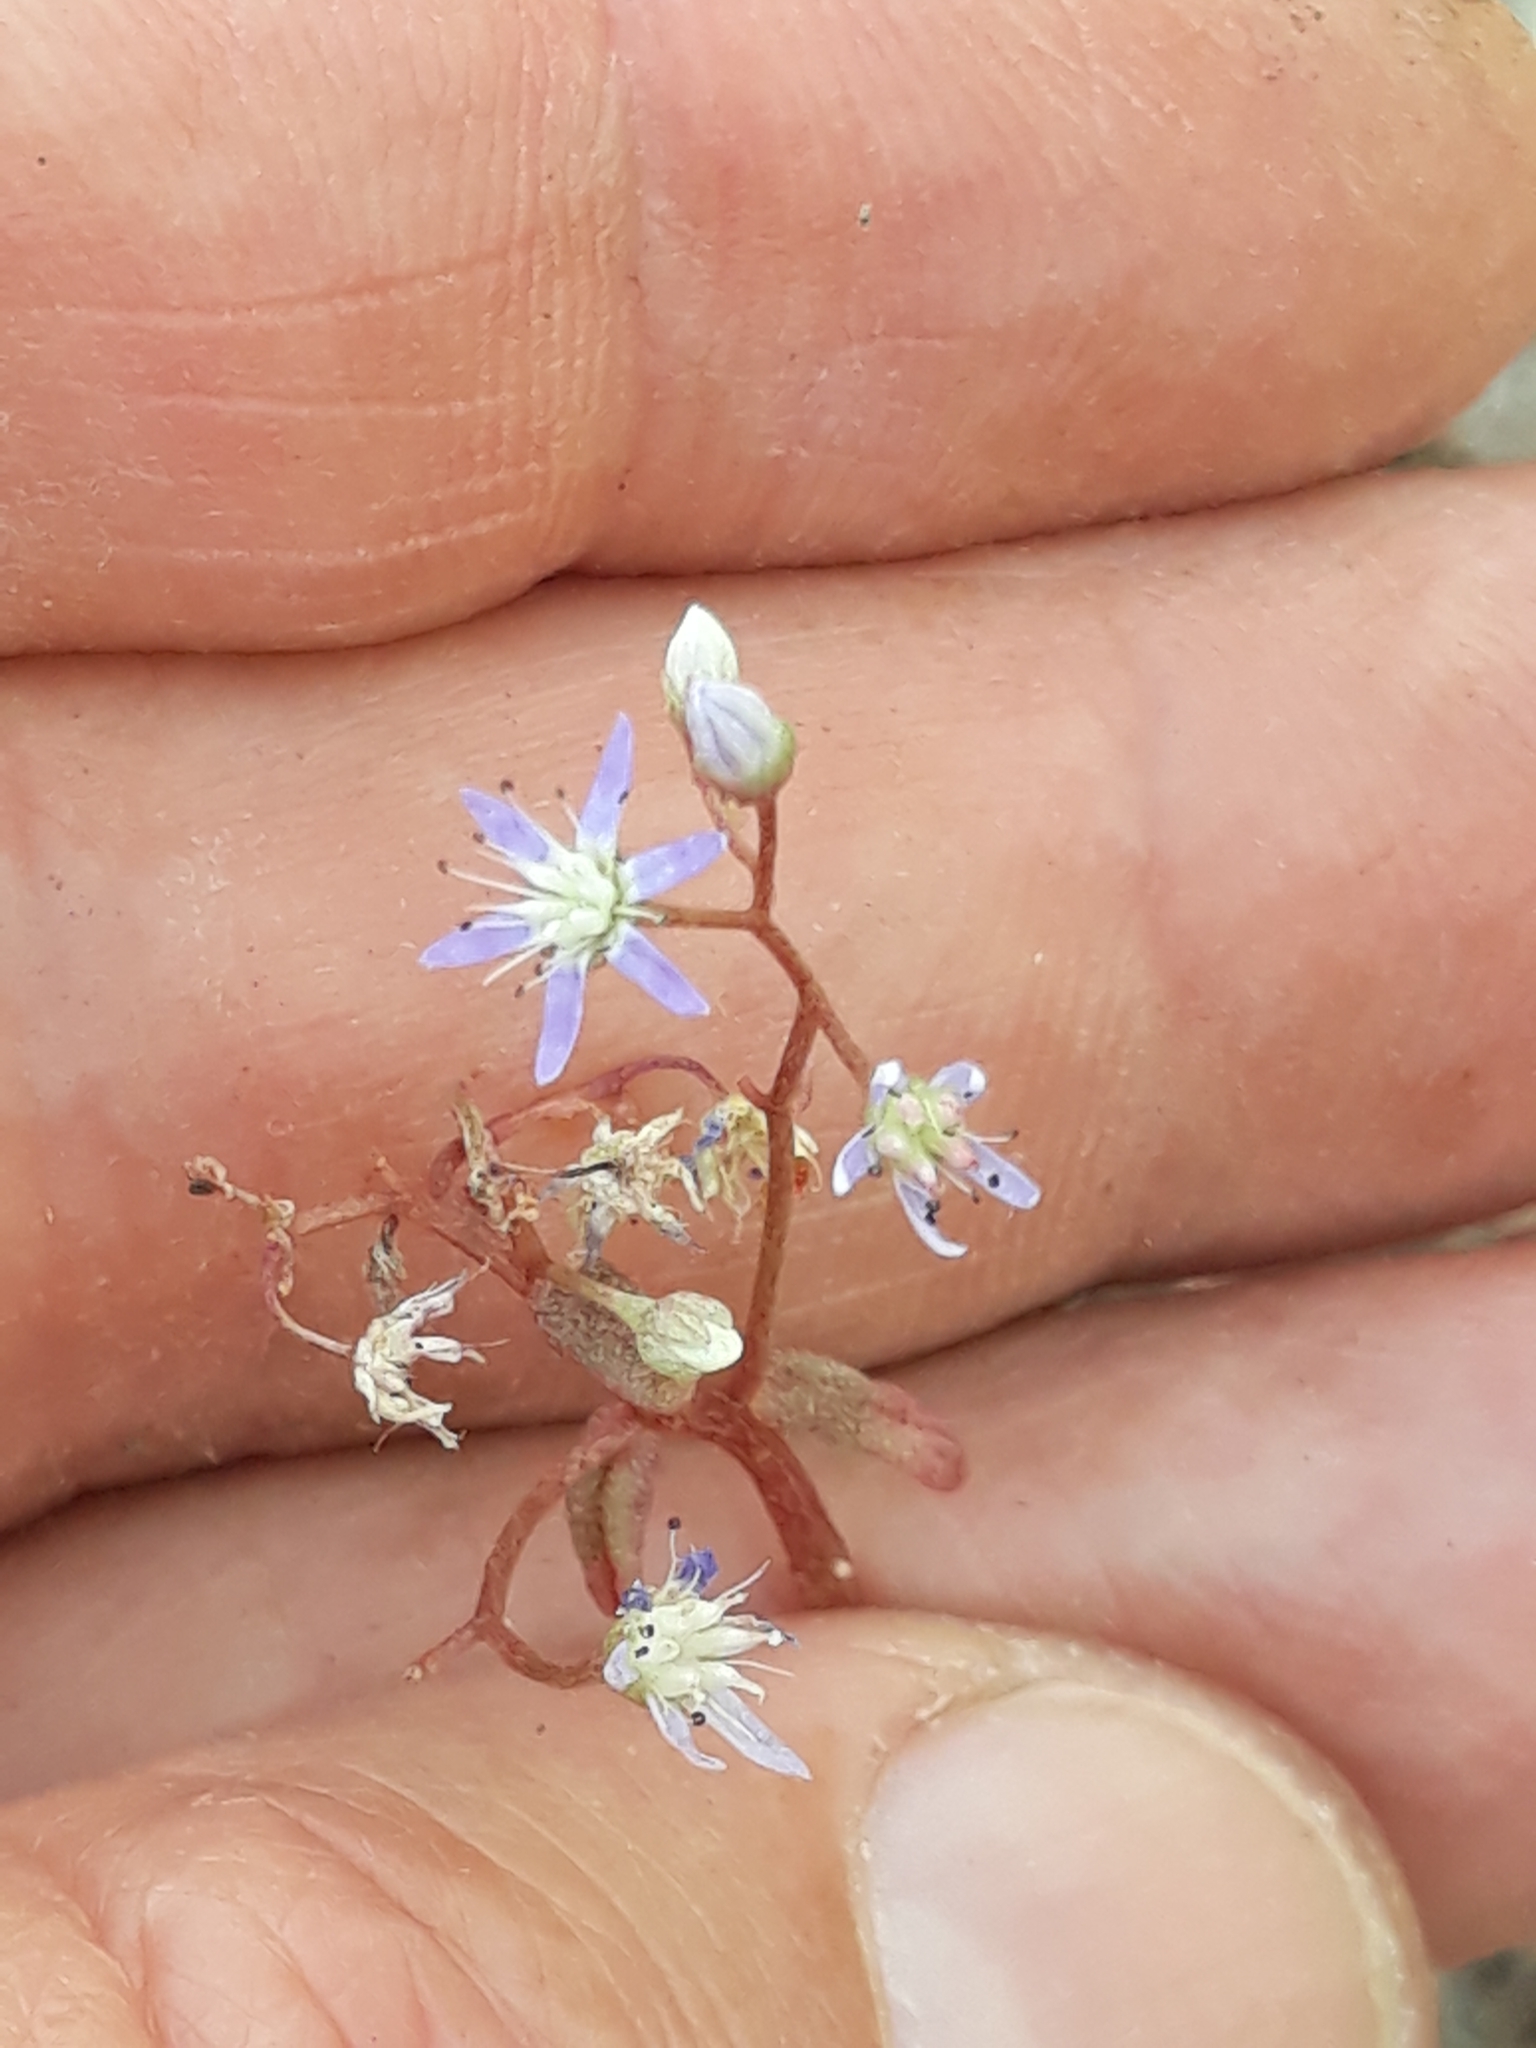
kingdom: Plantae
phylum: Tracheophyta
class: Magnoliopsida
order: Saxifragales
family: Crassulaceae
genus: Sedum
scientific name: Sedum caeruleum
